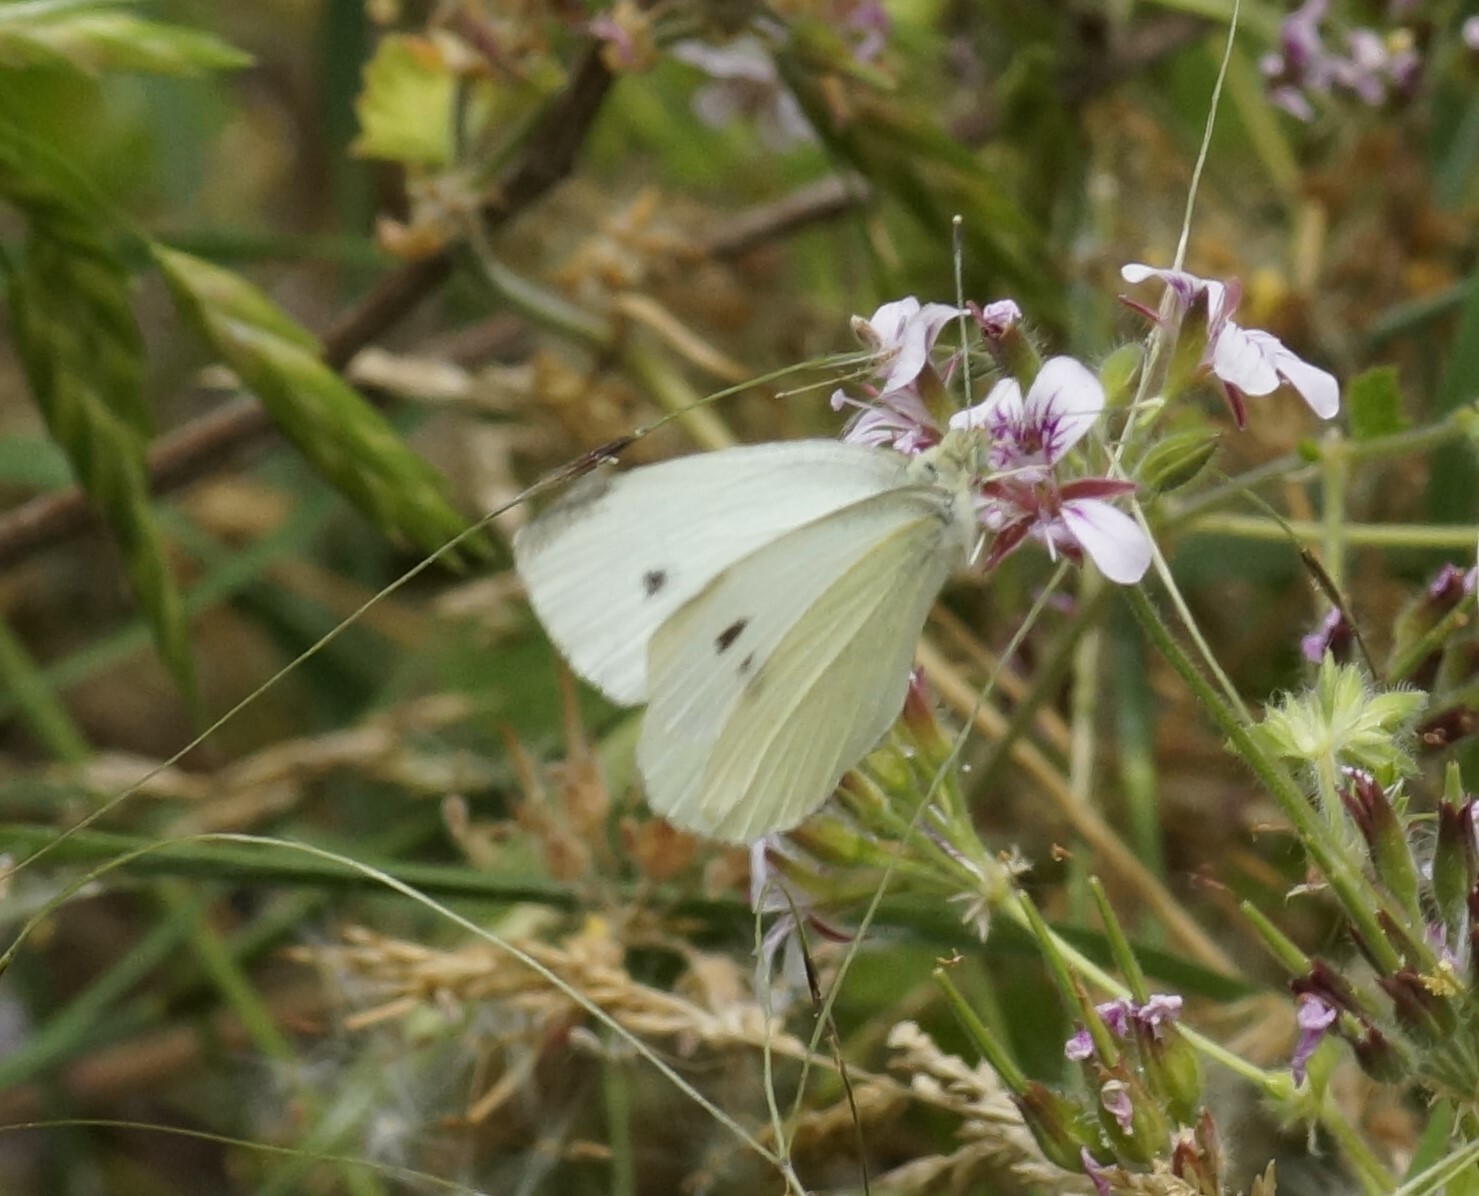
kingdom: Animalia
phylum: Arthropoda
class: Insecta
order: Lepidoptera
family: Pieridae
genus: Pieris
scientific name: Pieris rapae
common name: Small white
